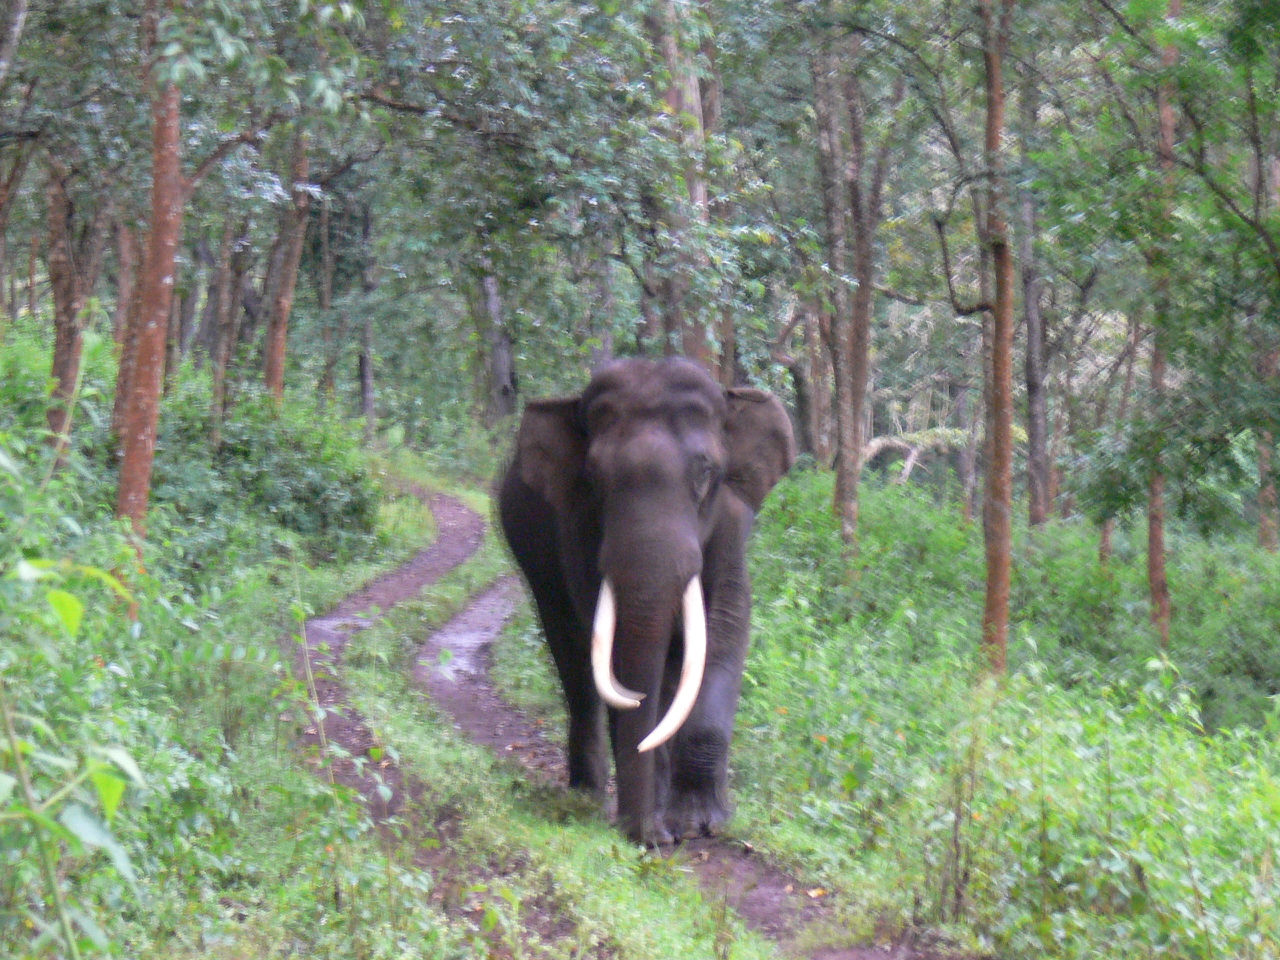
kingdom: Animalia
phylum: Chordata
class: Mammalia
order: Proboscidea
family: Elephantidae
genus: Elephas
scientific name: Elephas maximus
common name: Asian elephant
